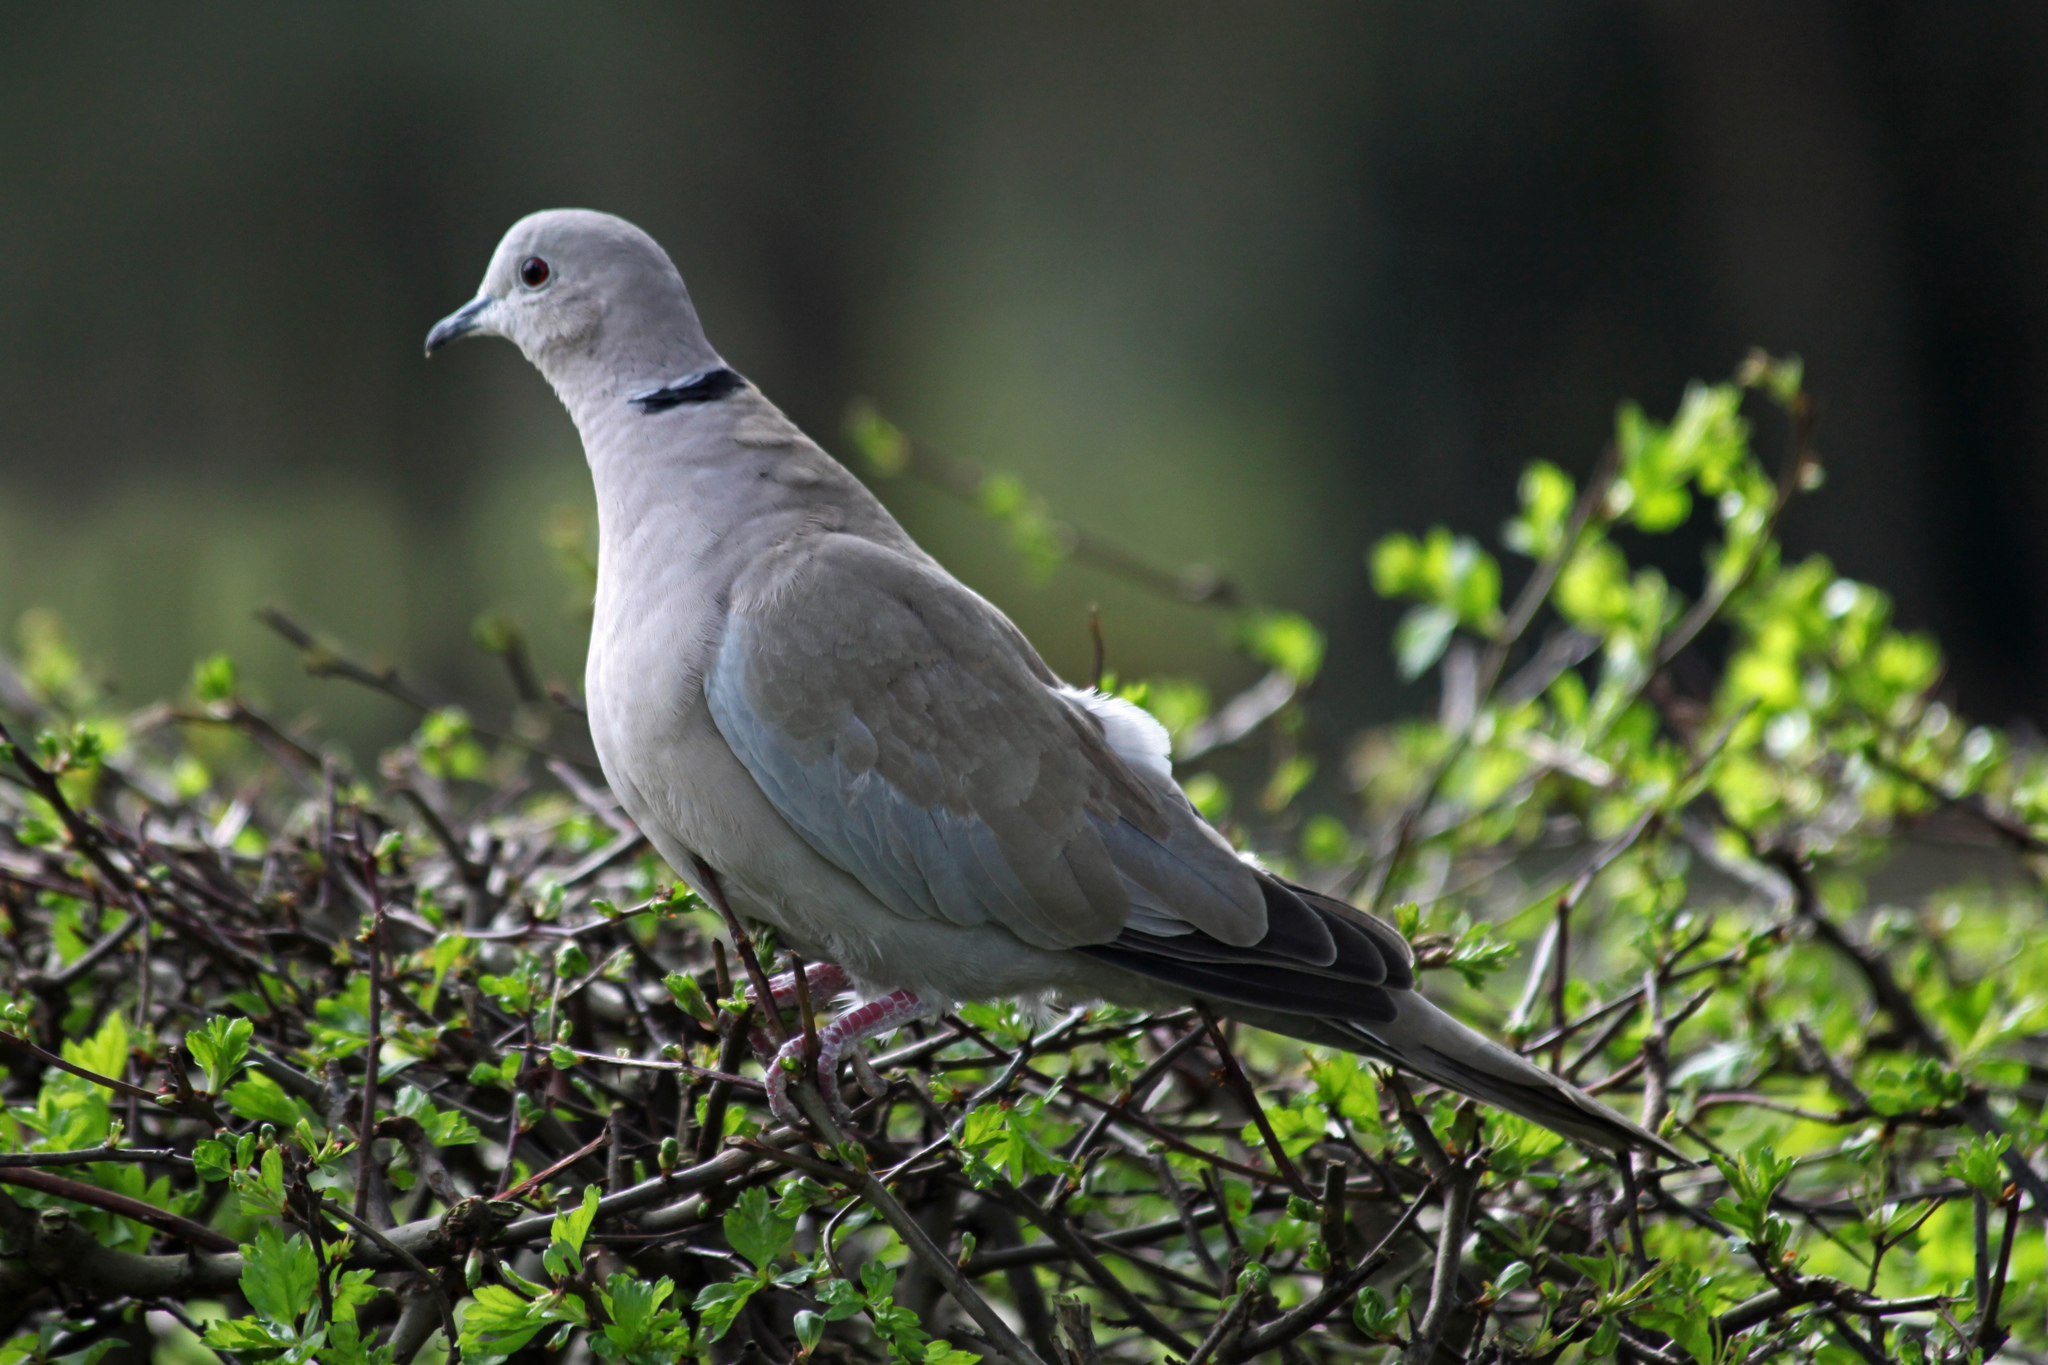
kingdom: Animalia
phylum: Chordata
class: Aves
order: Columbiformes
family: Columbidae
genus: Streptopelia
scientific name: Streptopelia decaocto
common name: Eurasian collared dove
